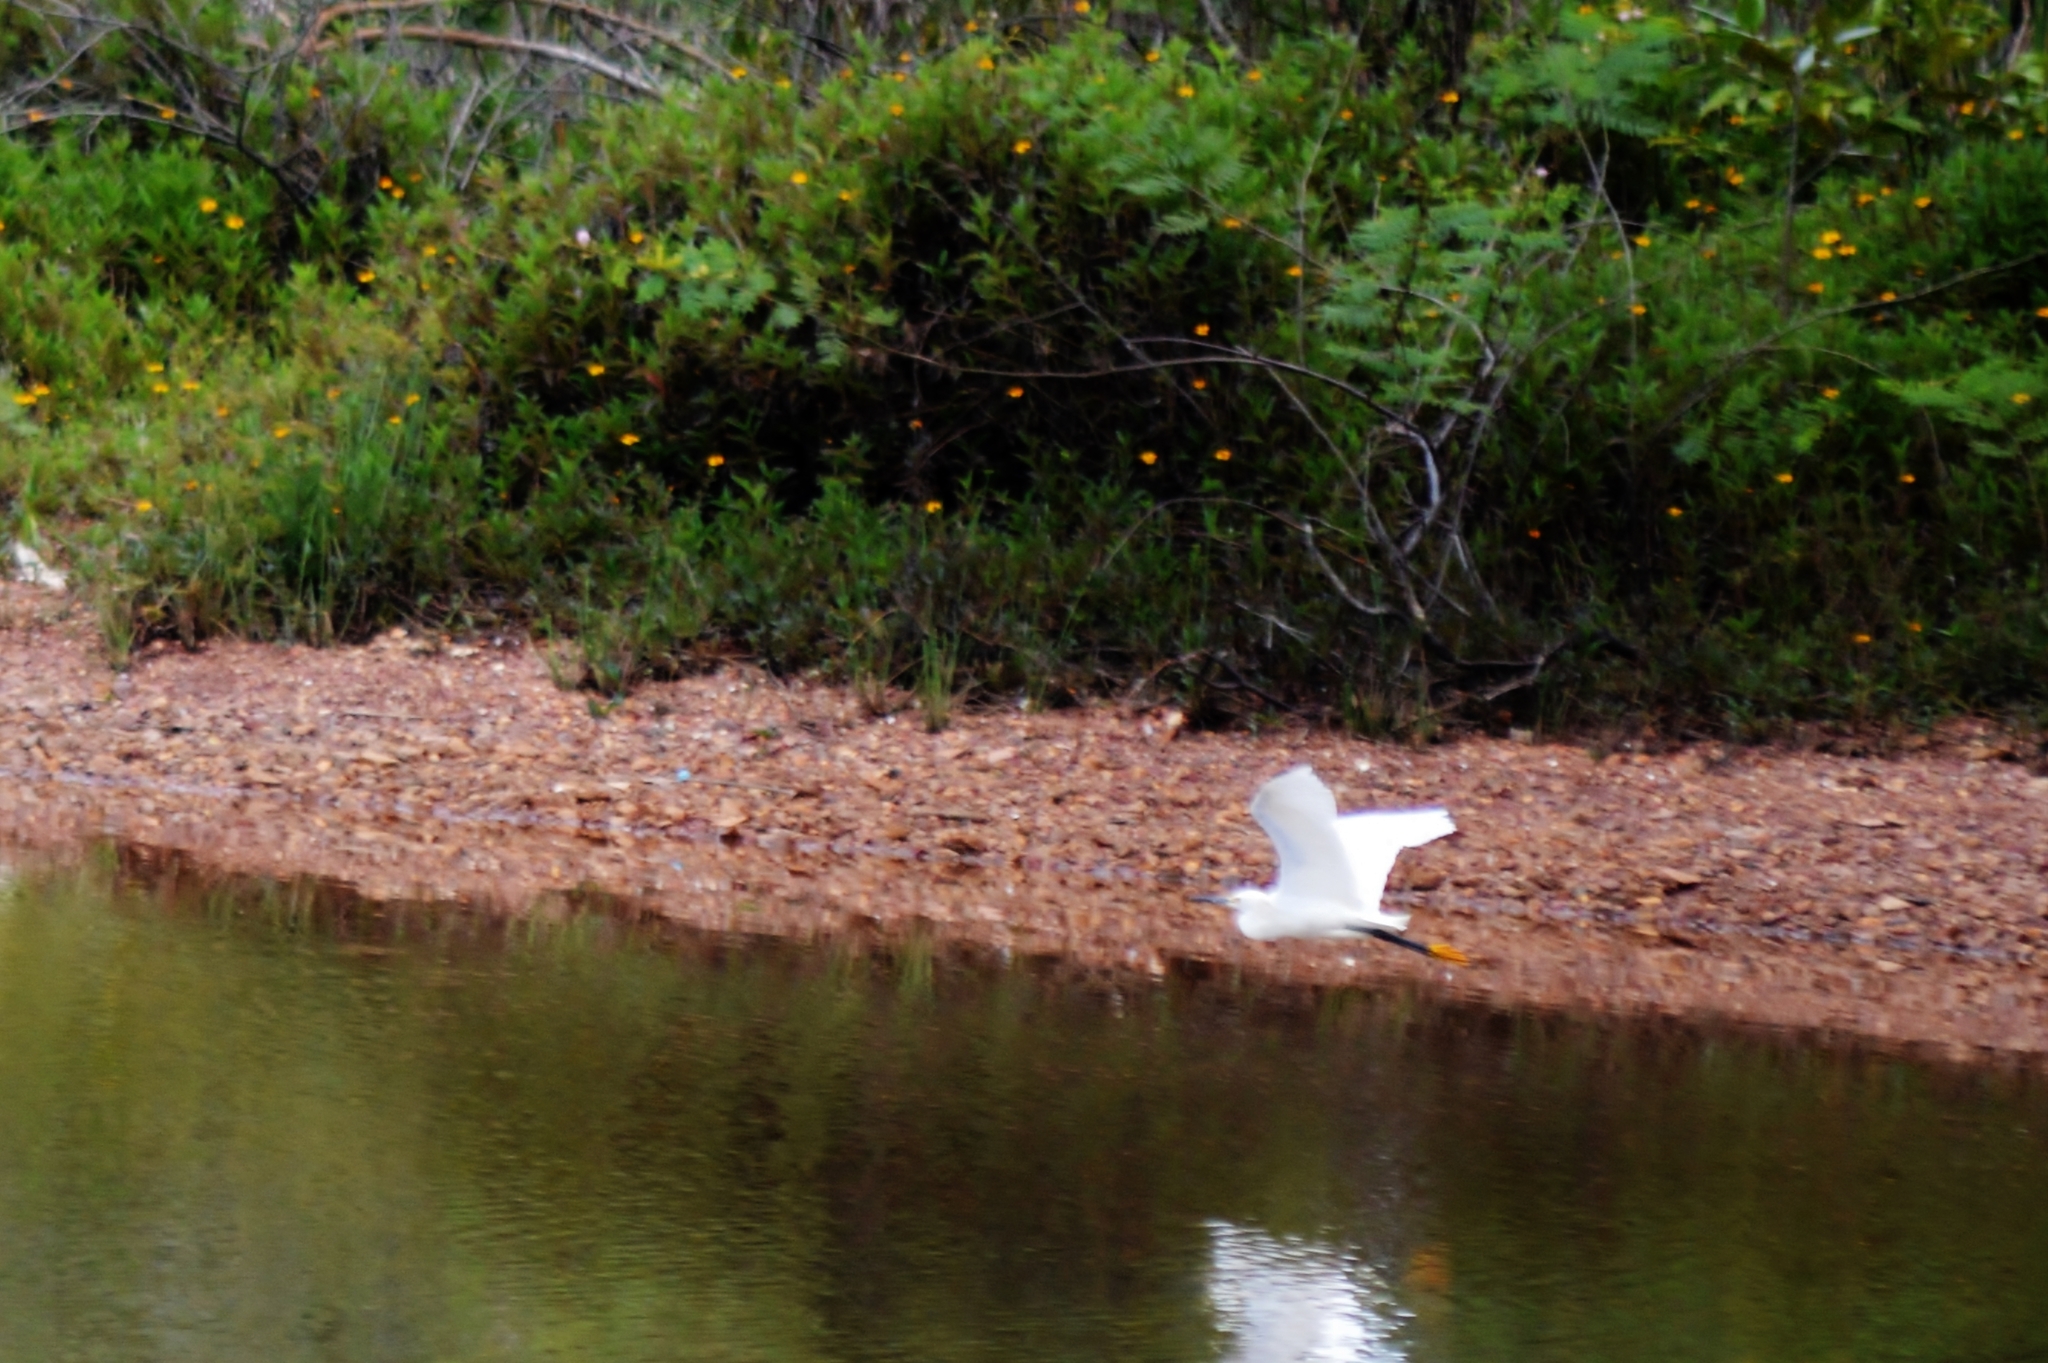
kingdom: Animalia
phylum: Chordata
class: Aves
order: Pelecaniformes
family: Ardeidae
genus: Egretta
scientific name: Egretta thula
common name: Snowy egret
